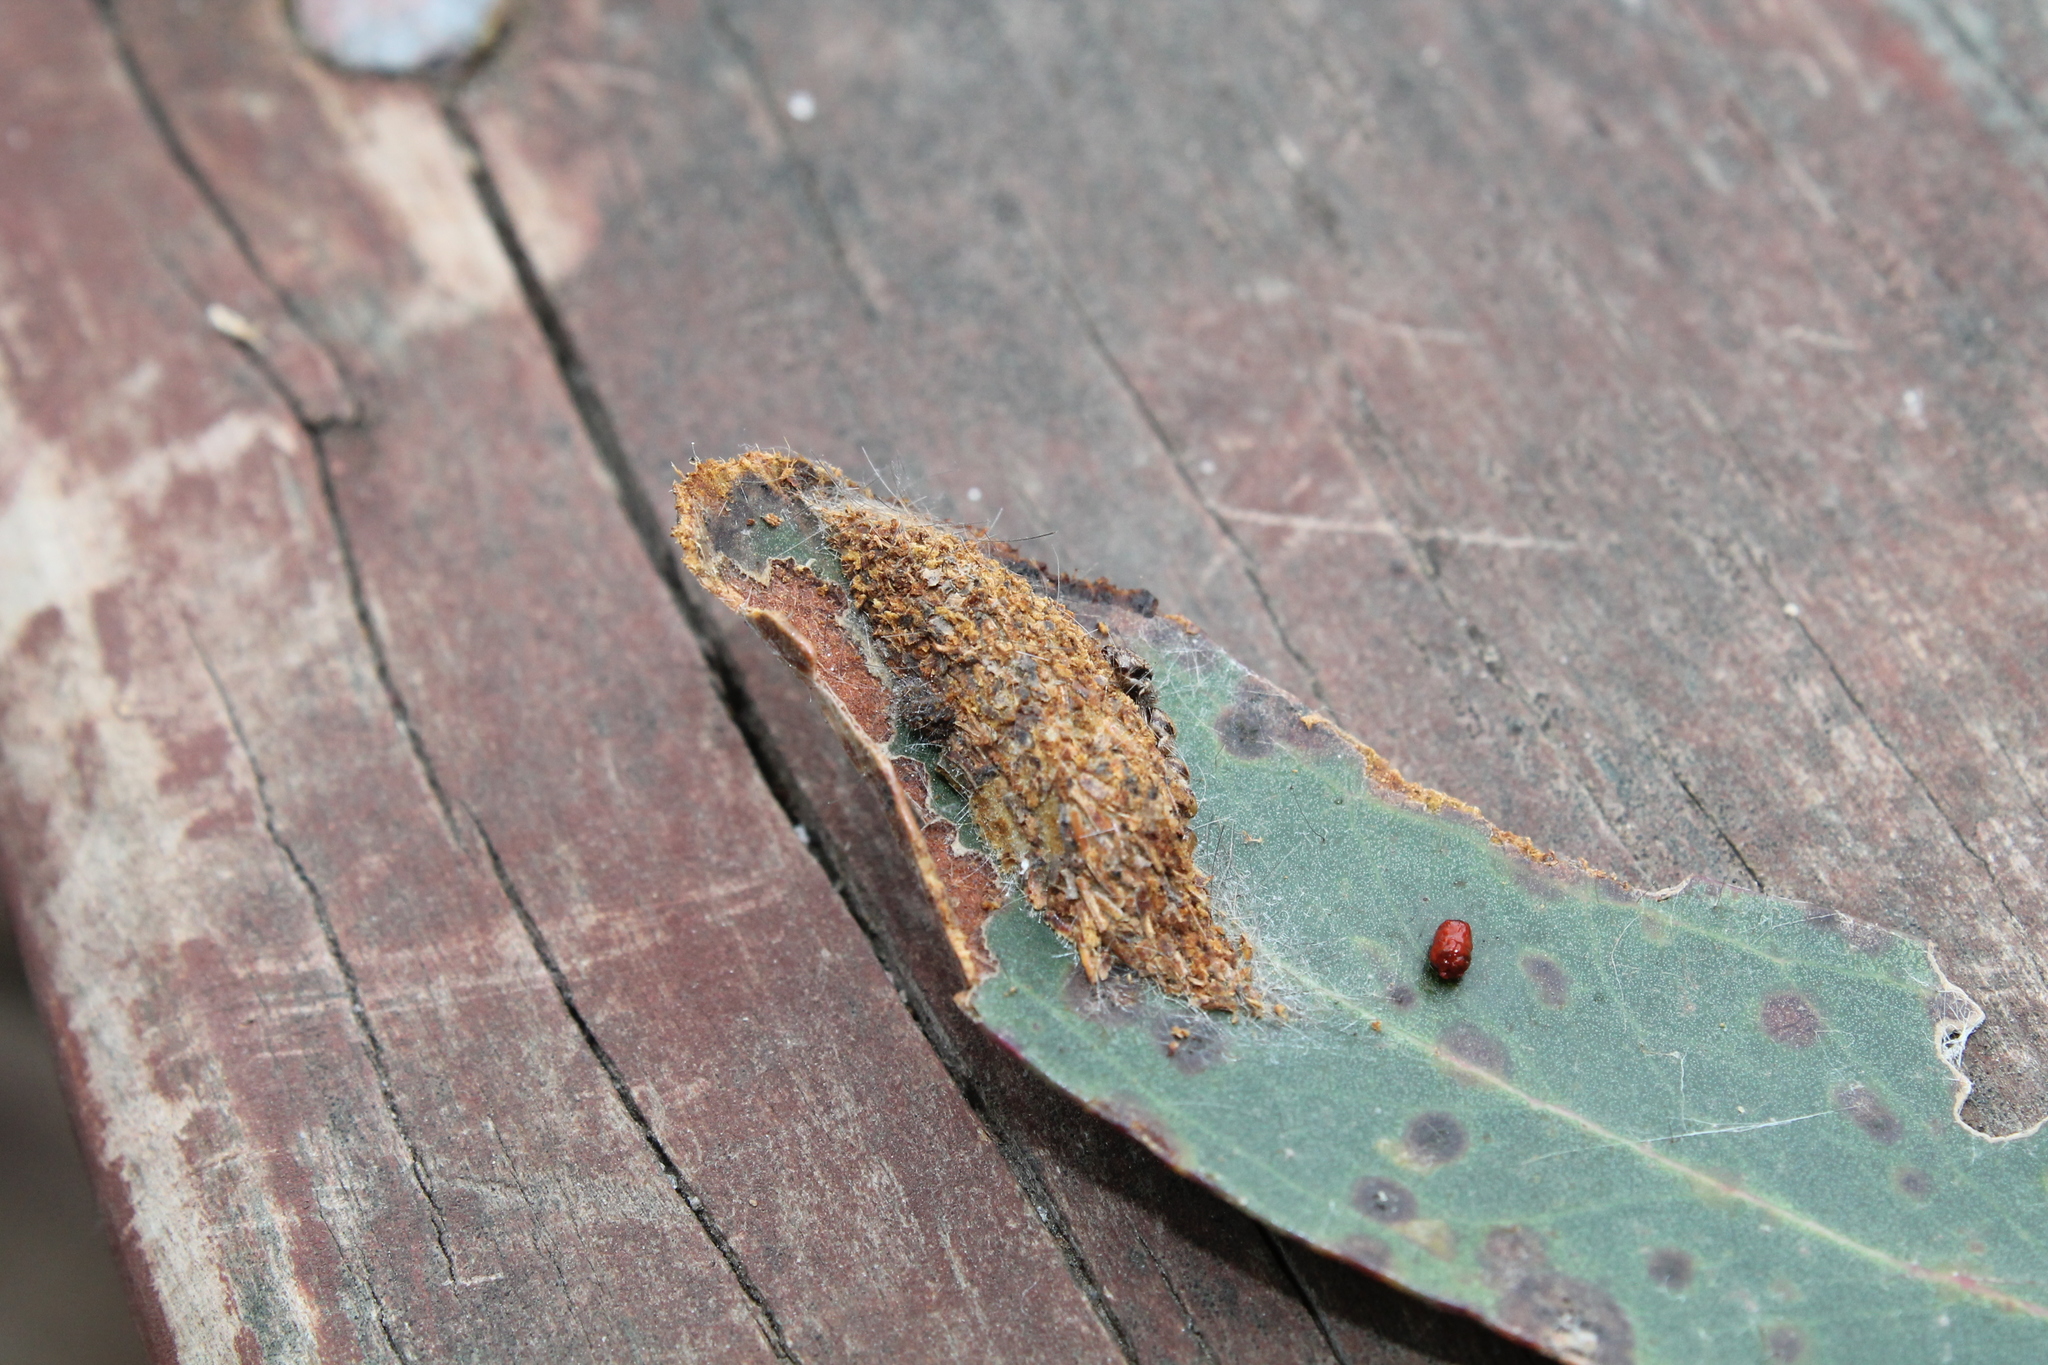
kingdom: Animalia
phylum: Arthropoda
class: Insecta
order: Lepidoptera
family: Nolidae
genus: Uraba
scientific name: Uraba lugens
